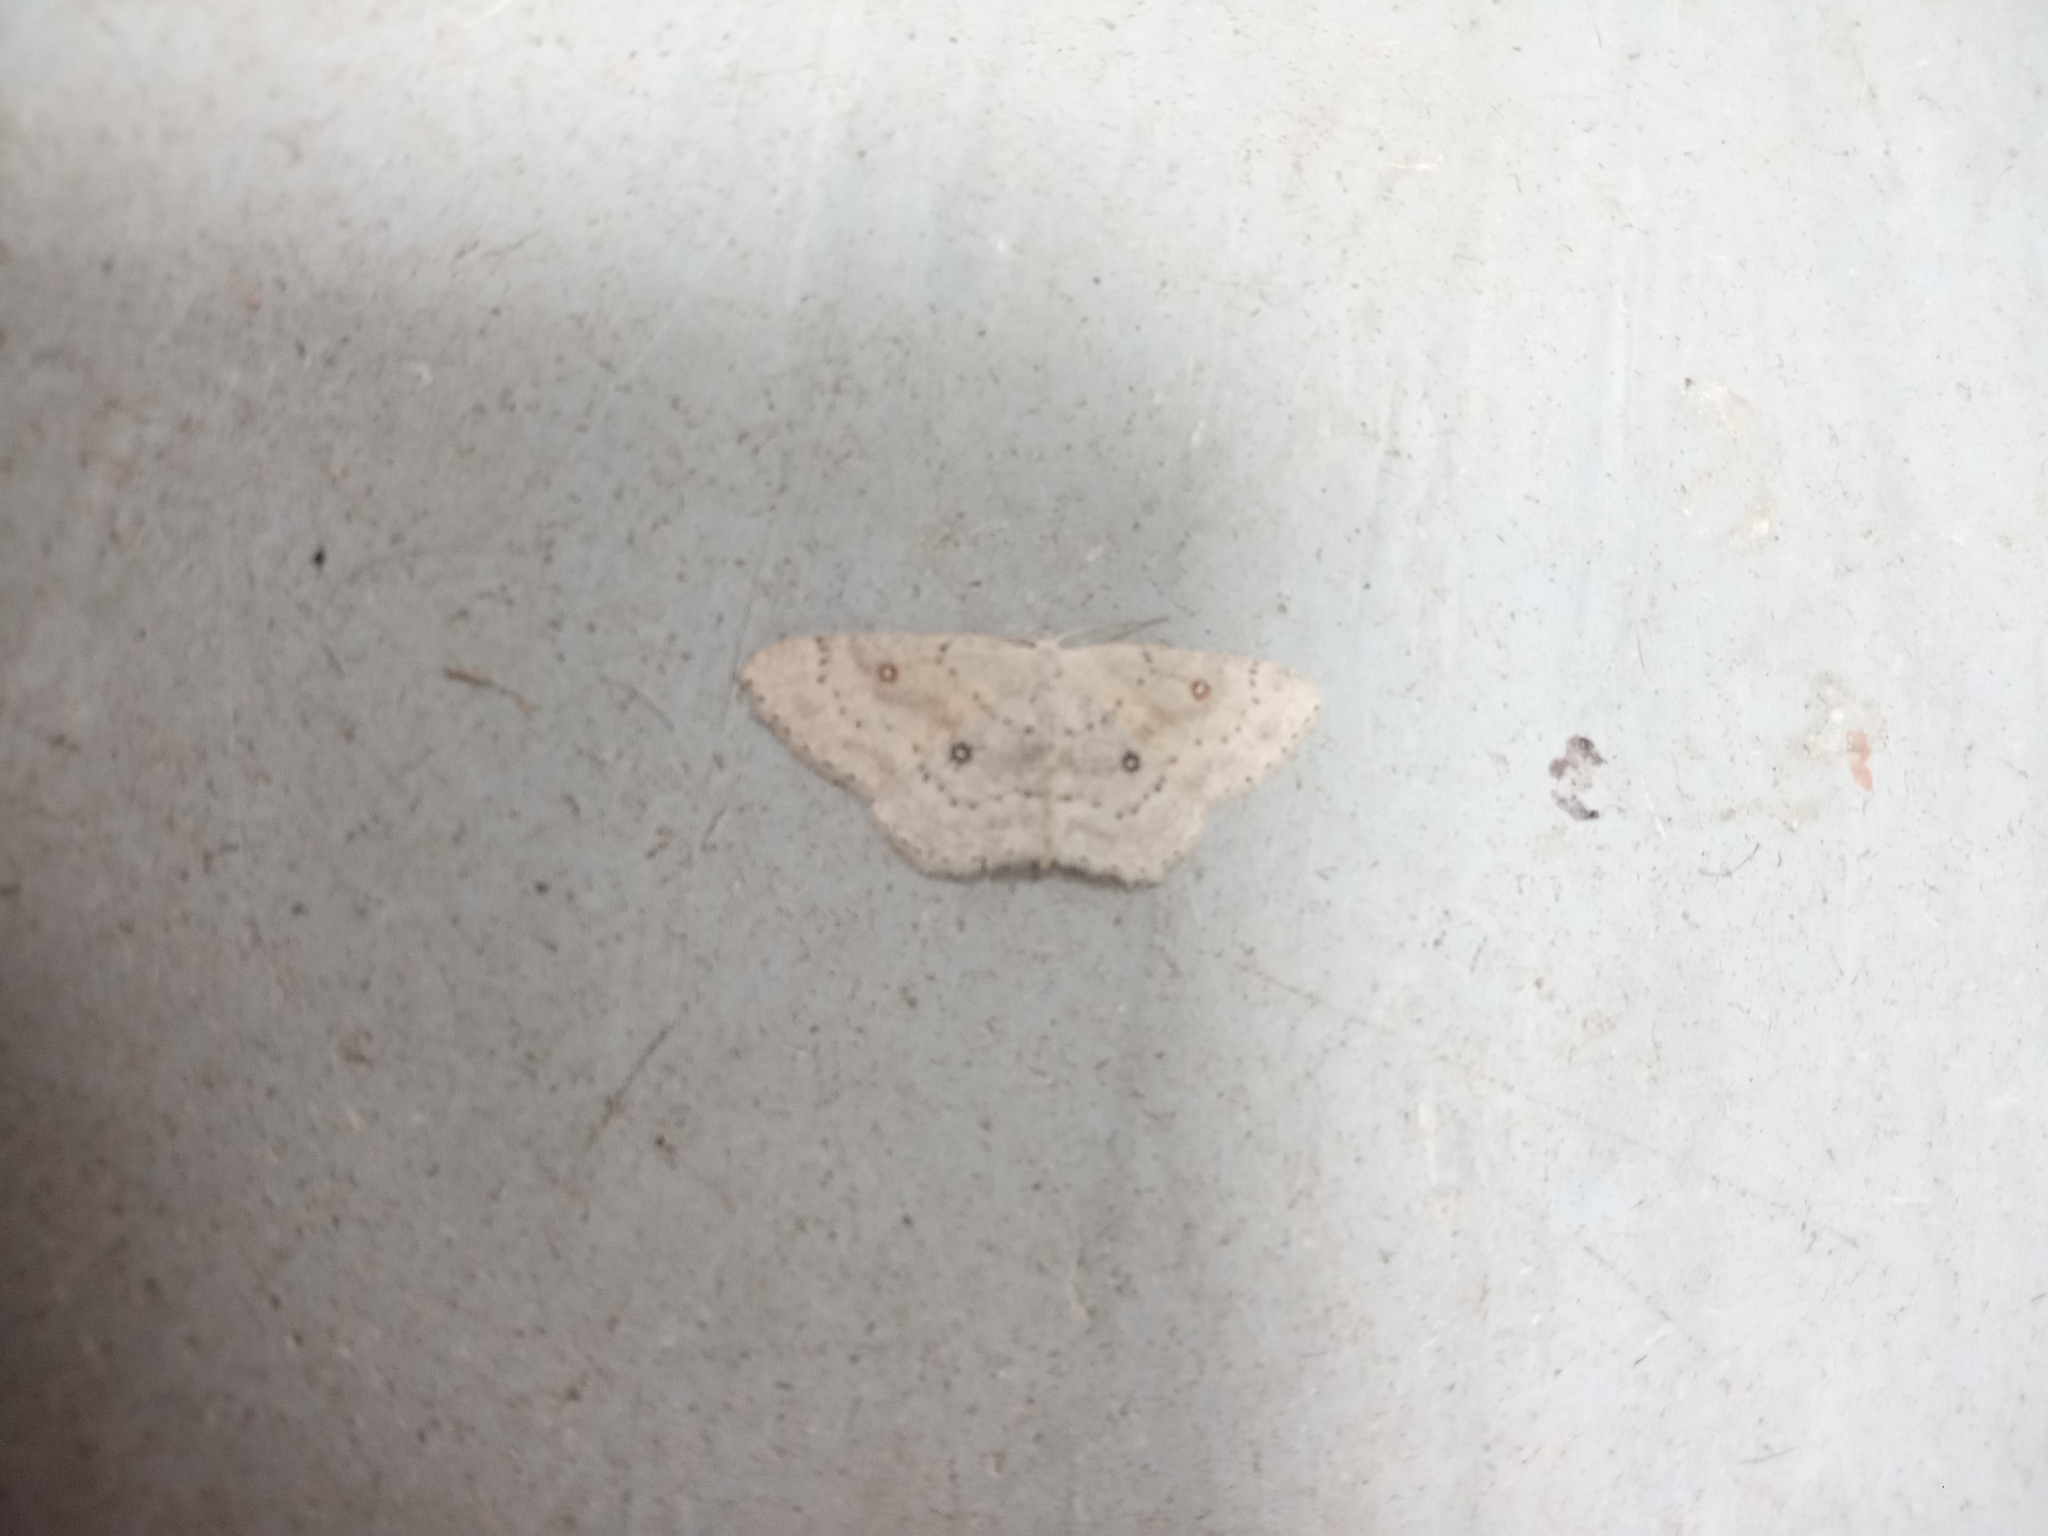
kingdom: Animalia
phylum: Arthropoda
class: Insecta
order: Lepidoptera
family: Geometridae
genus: Cyclophora
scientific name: Cyclophora albipunctata
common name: Birch mocha
